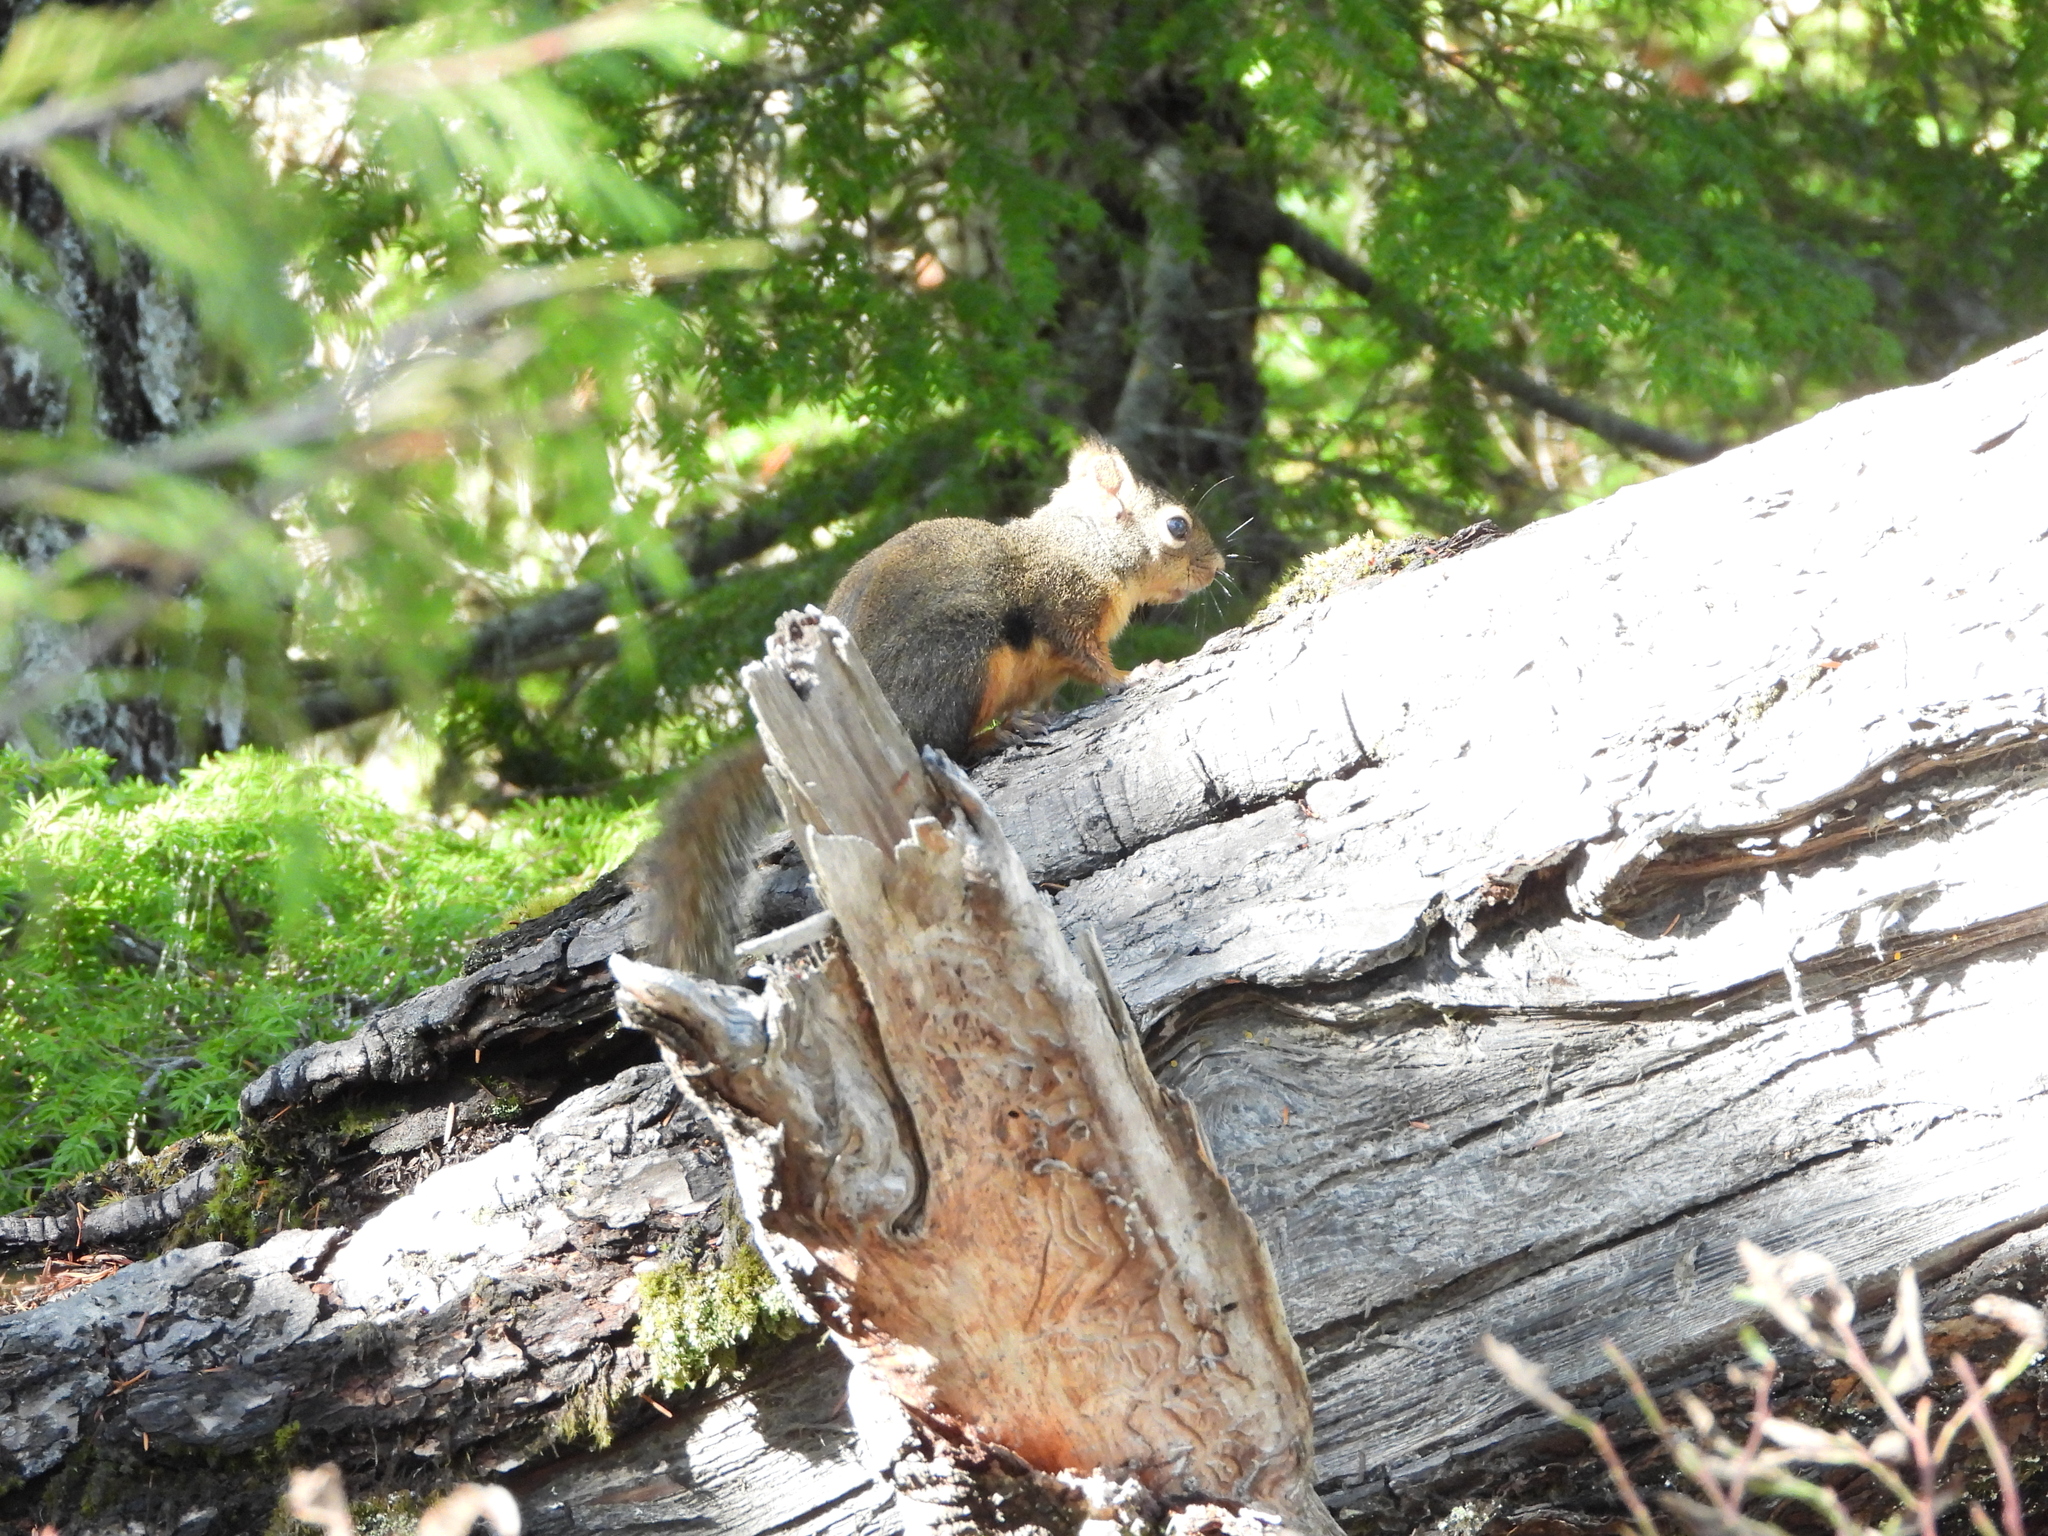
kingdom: Animalia
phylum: Chordata
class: Mammalia
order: Rodentia
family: Sciuridae
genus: Tamiasciurus
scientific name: Tamiasciurus douglasii
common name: Douglas's squirrel
